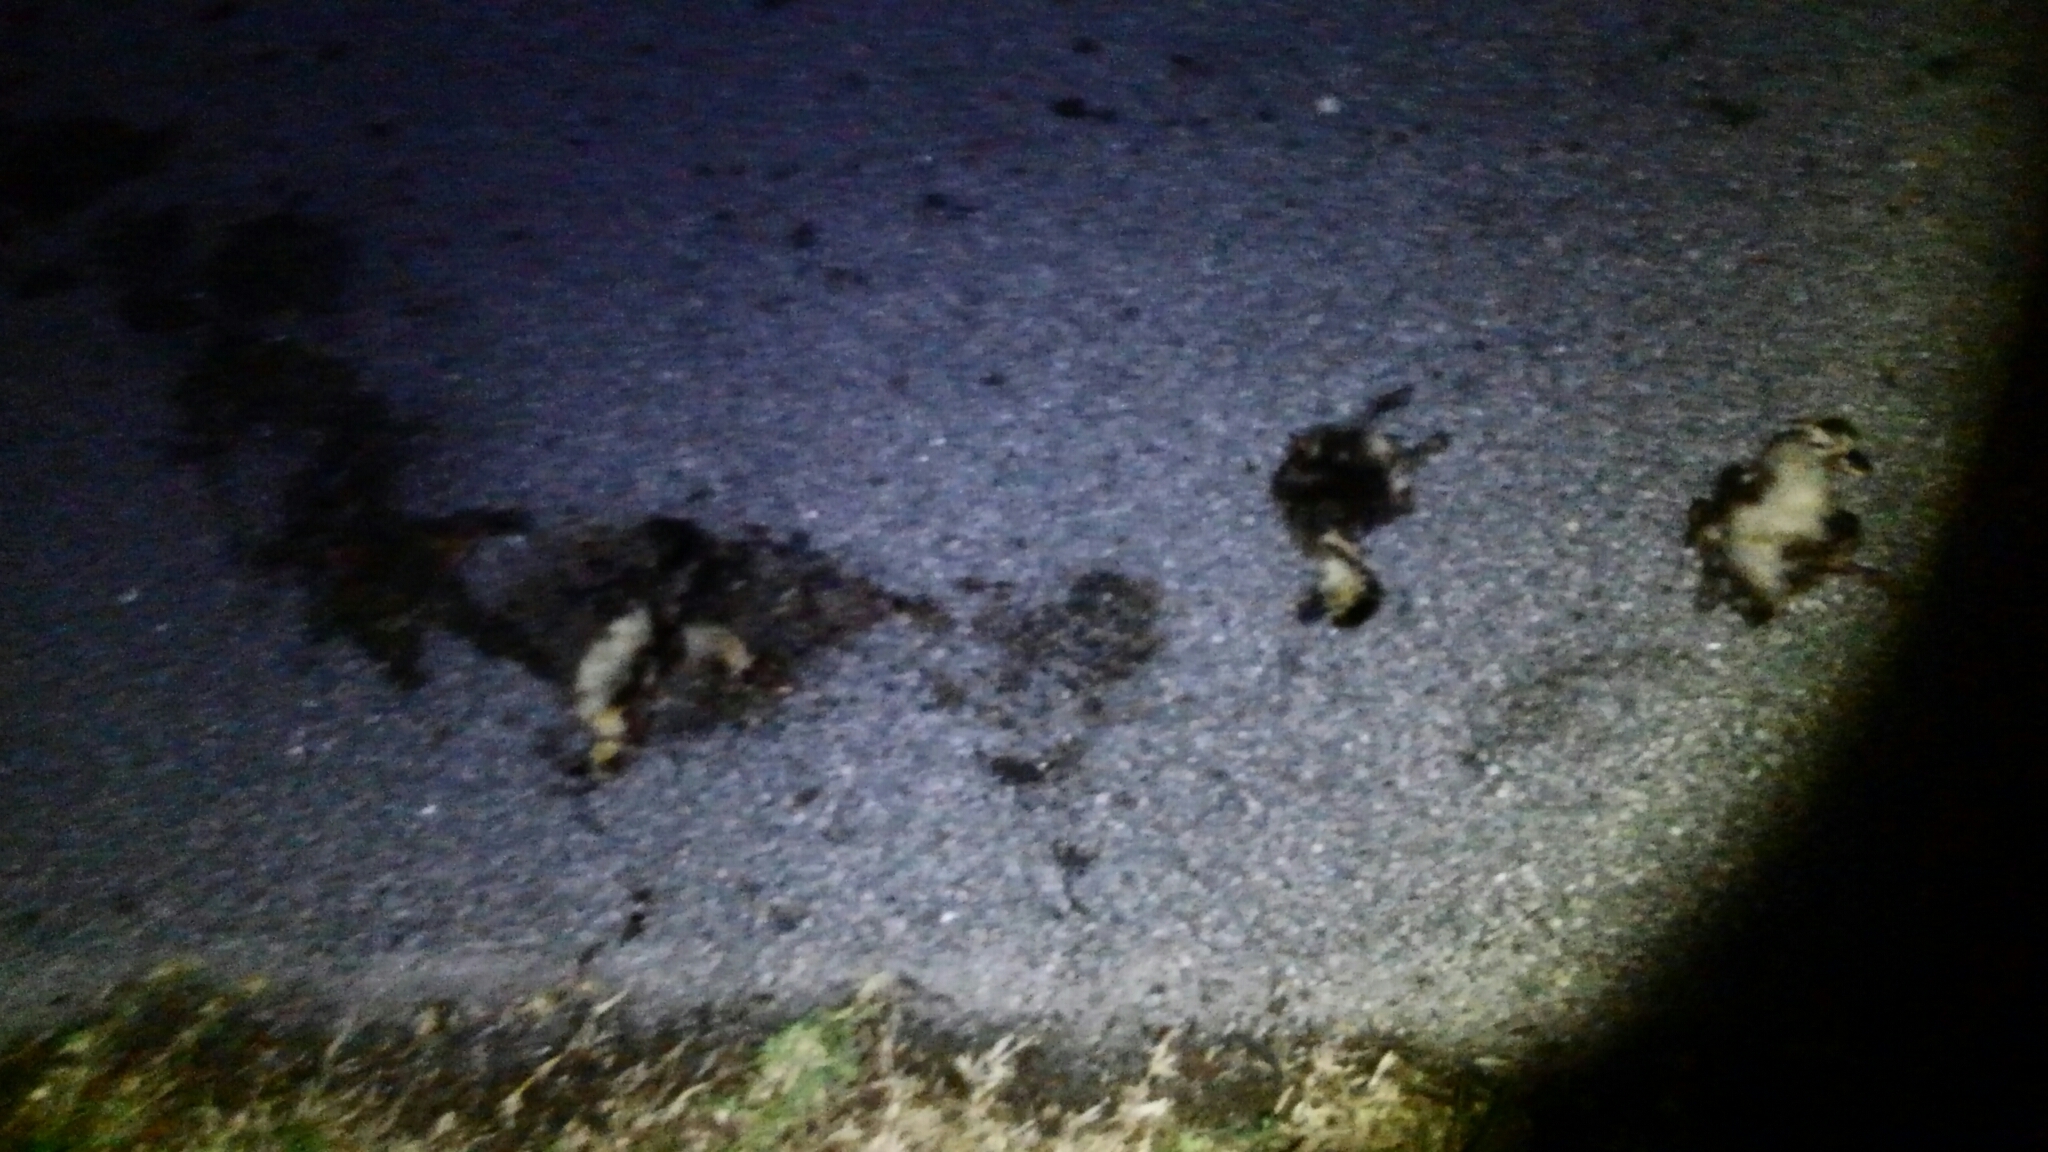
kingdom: Animalia
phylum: Chordata
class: Aves
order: Anseriformes
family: Anatidae
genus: Cairina
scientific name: Cairina moschata
